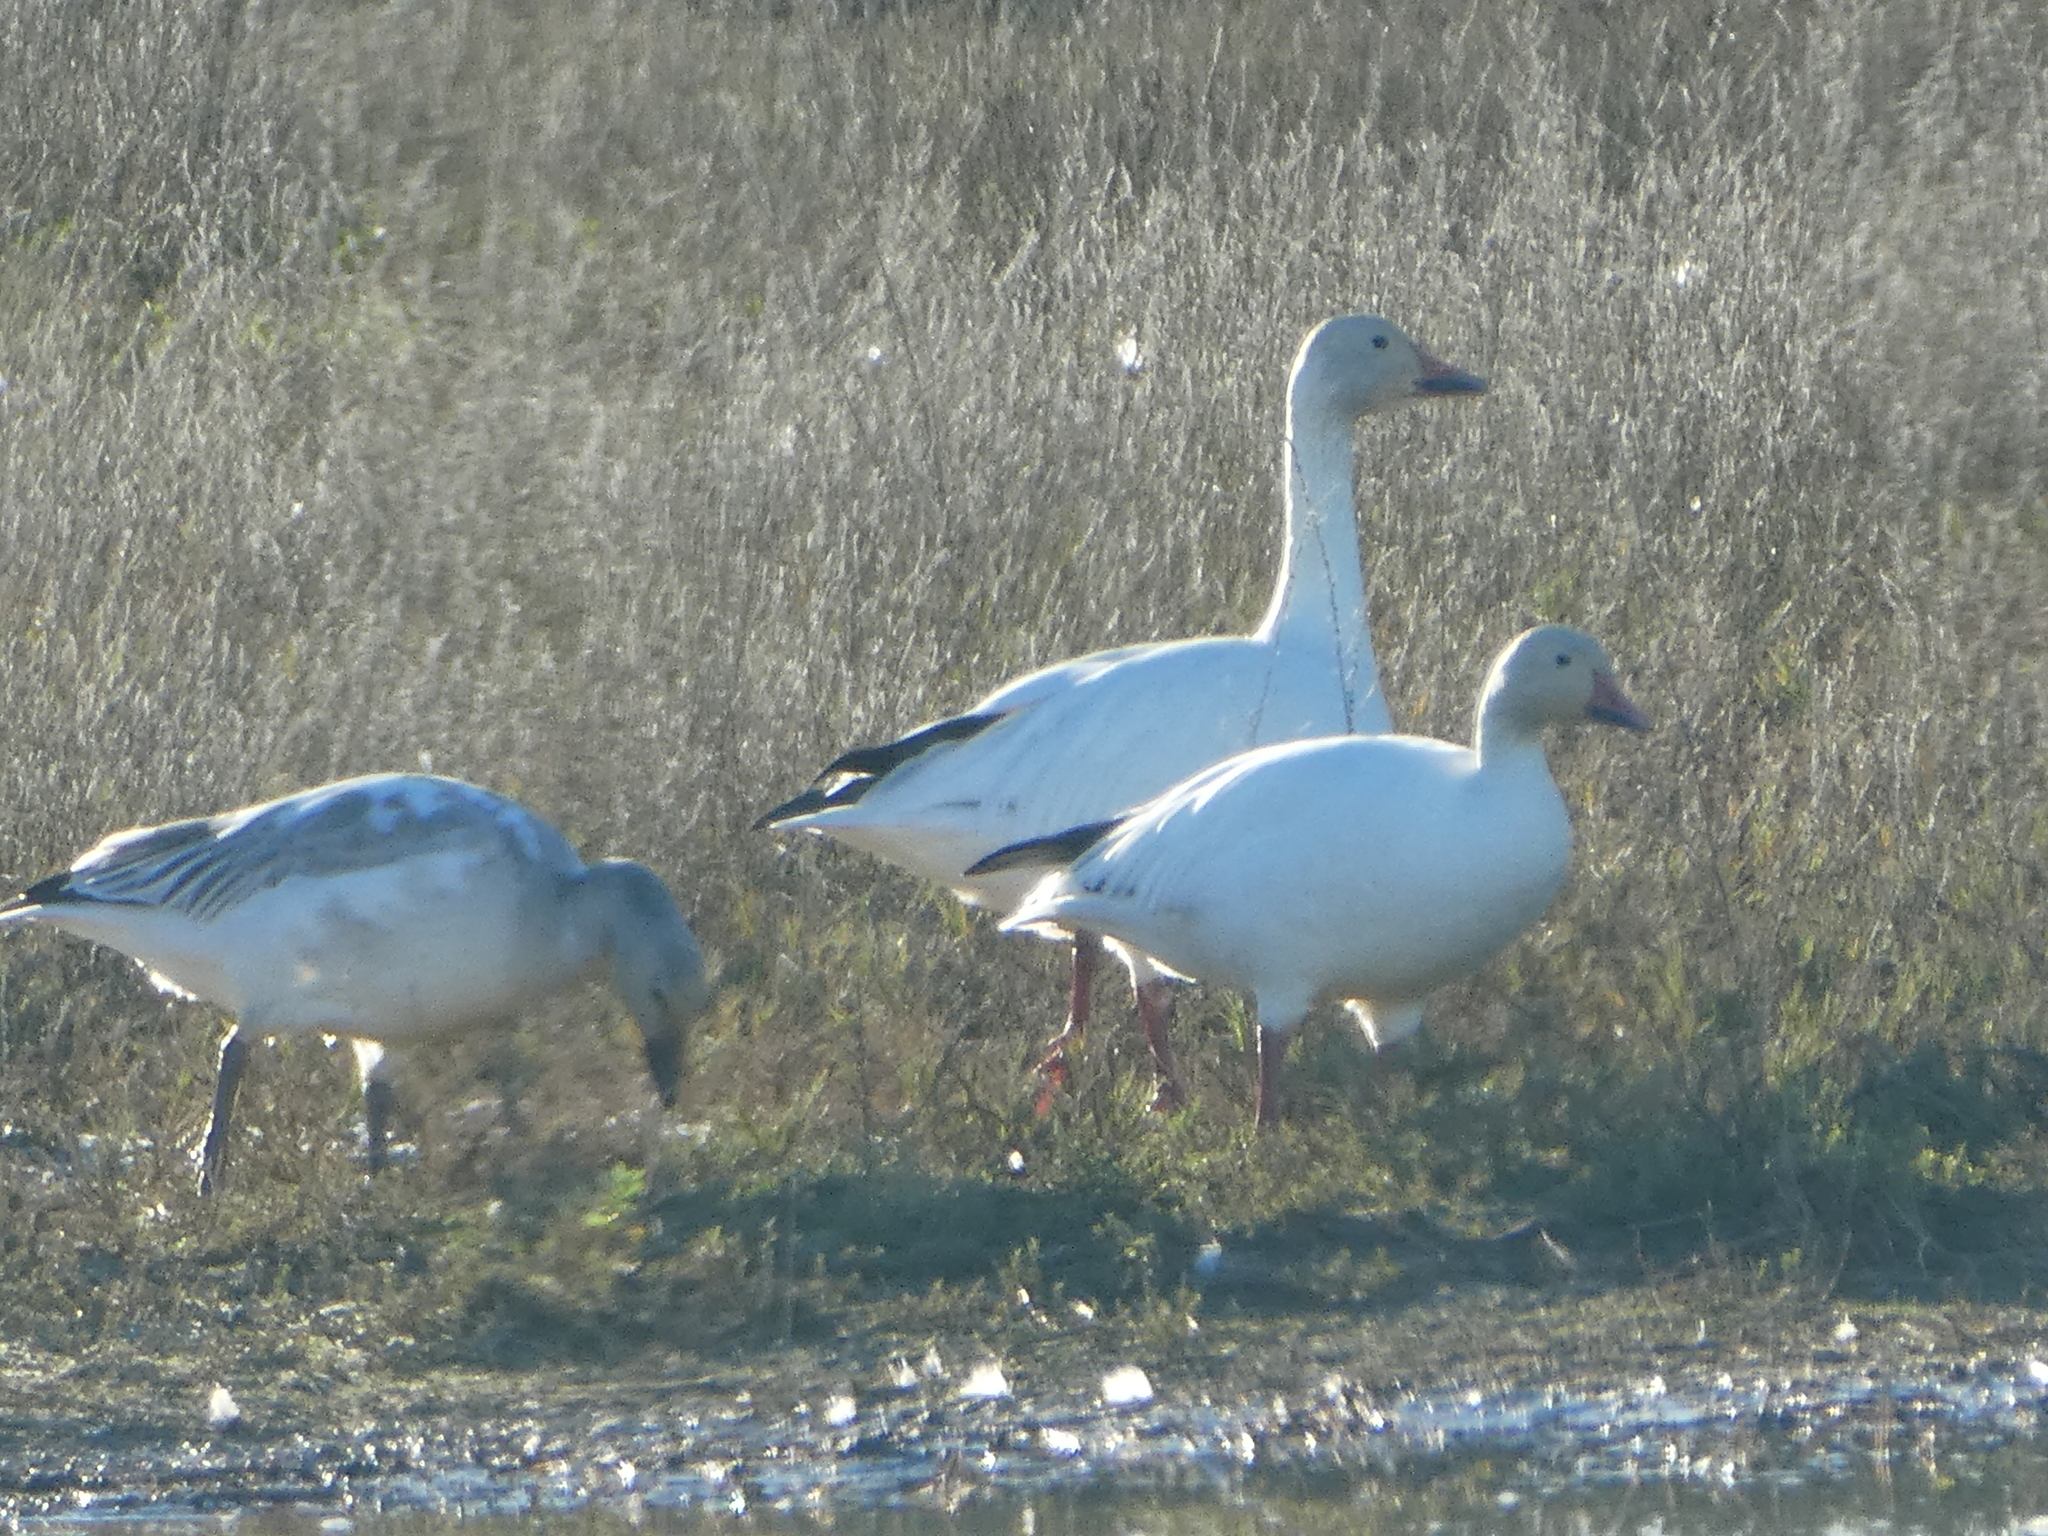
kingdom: Animalia
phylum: Chordata
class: Aves
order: Anseriformes
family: Anatidae
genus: Anser
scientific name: Anser caerulescens
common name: Snow goose
